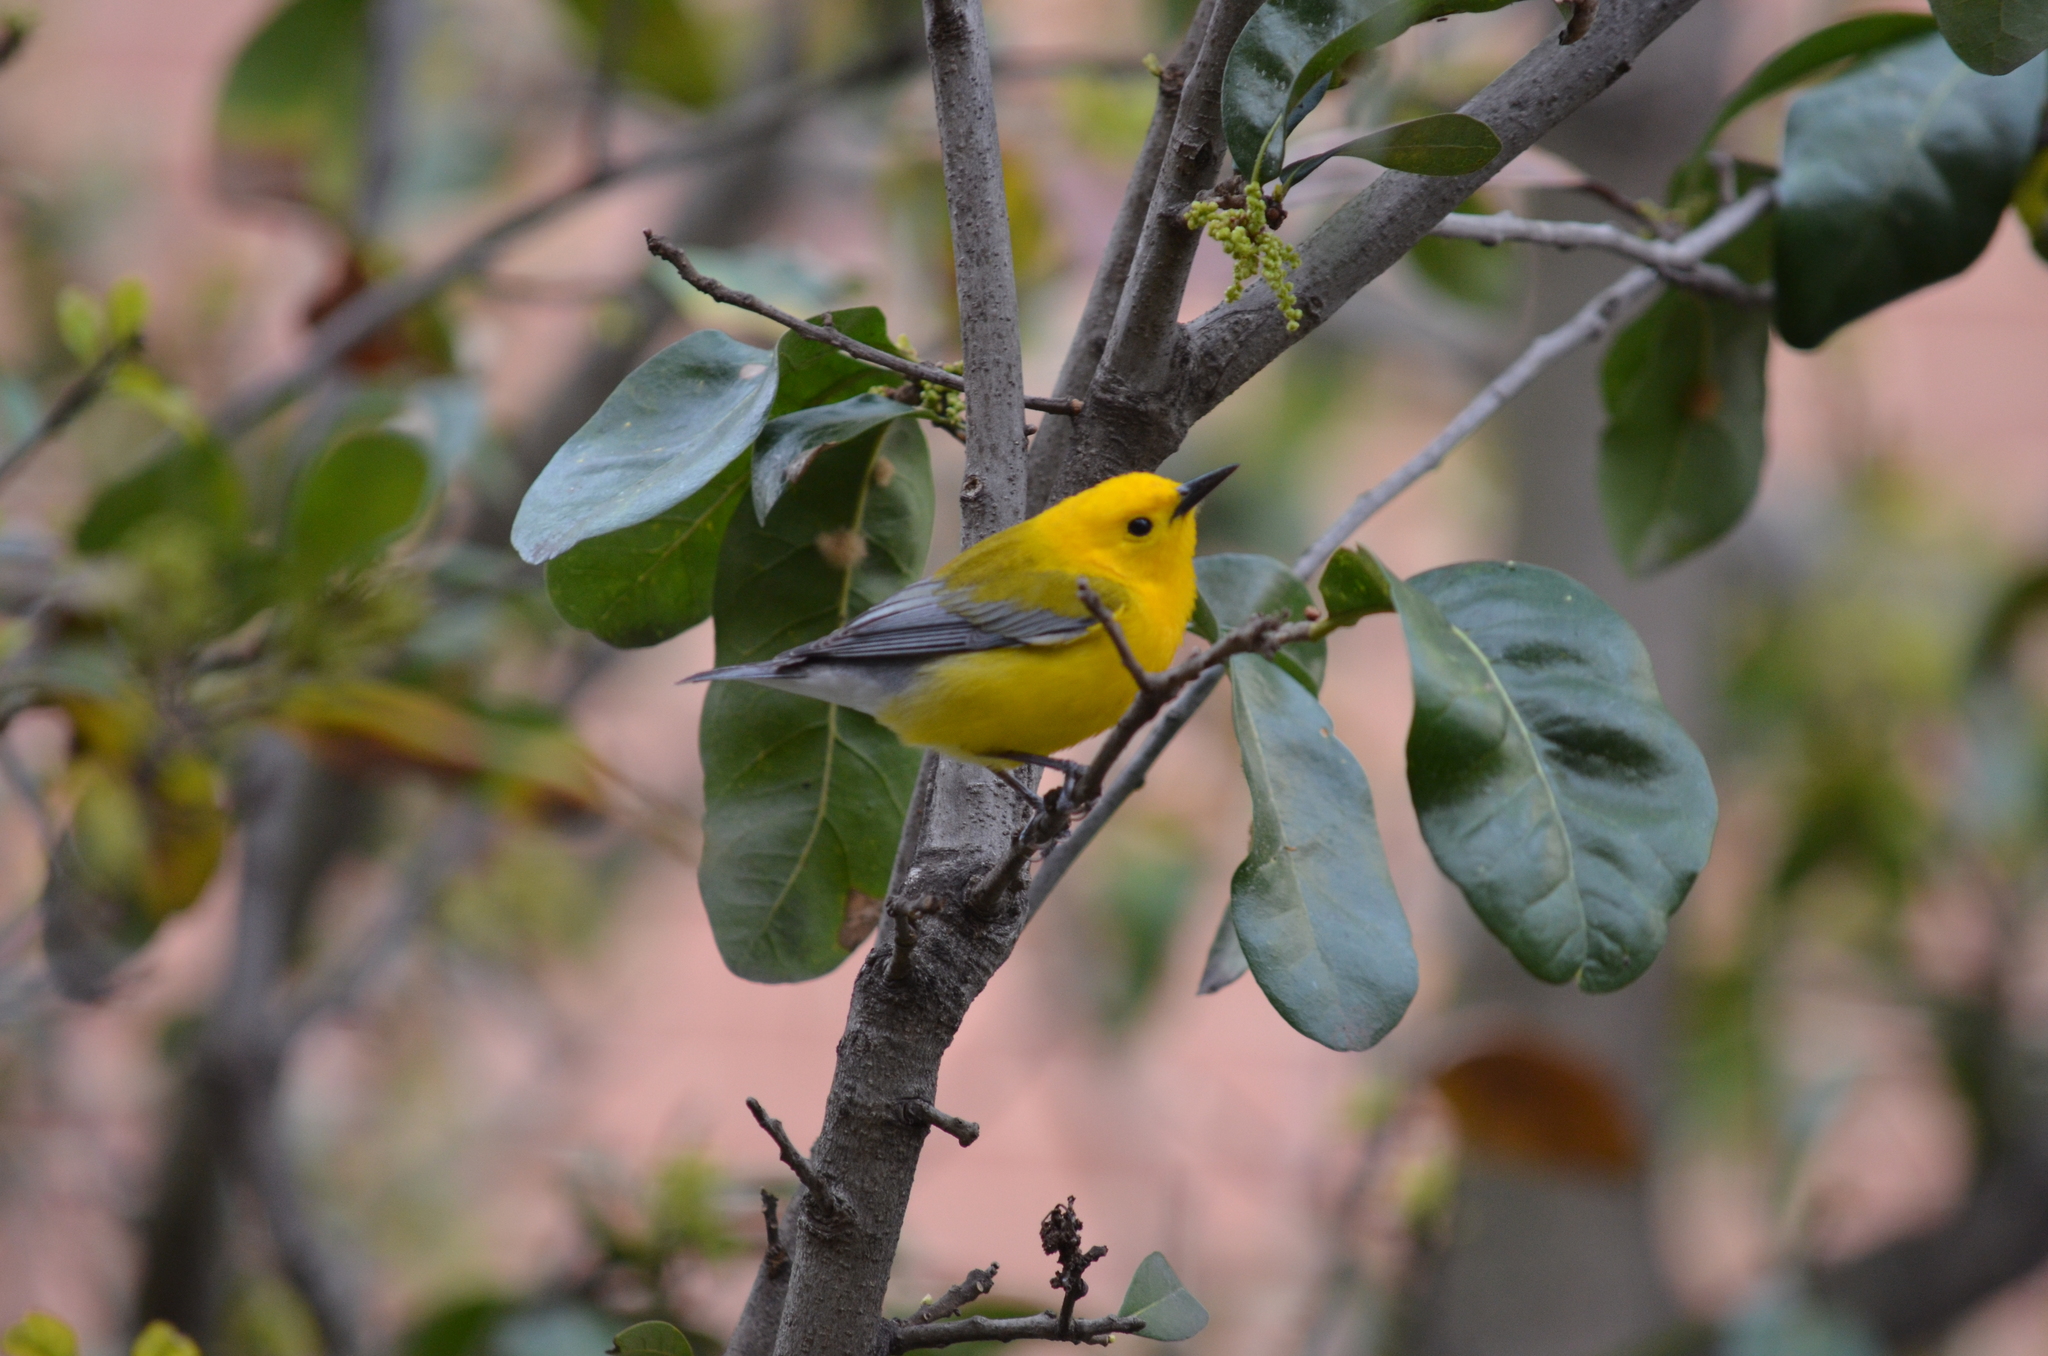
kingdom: Animalia
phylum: Chordata
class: Aves
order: Passeriformes
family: Parulidae
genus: Protonotaria
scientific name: Protonotaria citrea
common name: Prothonotary warbler
